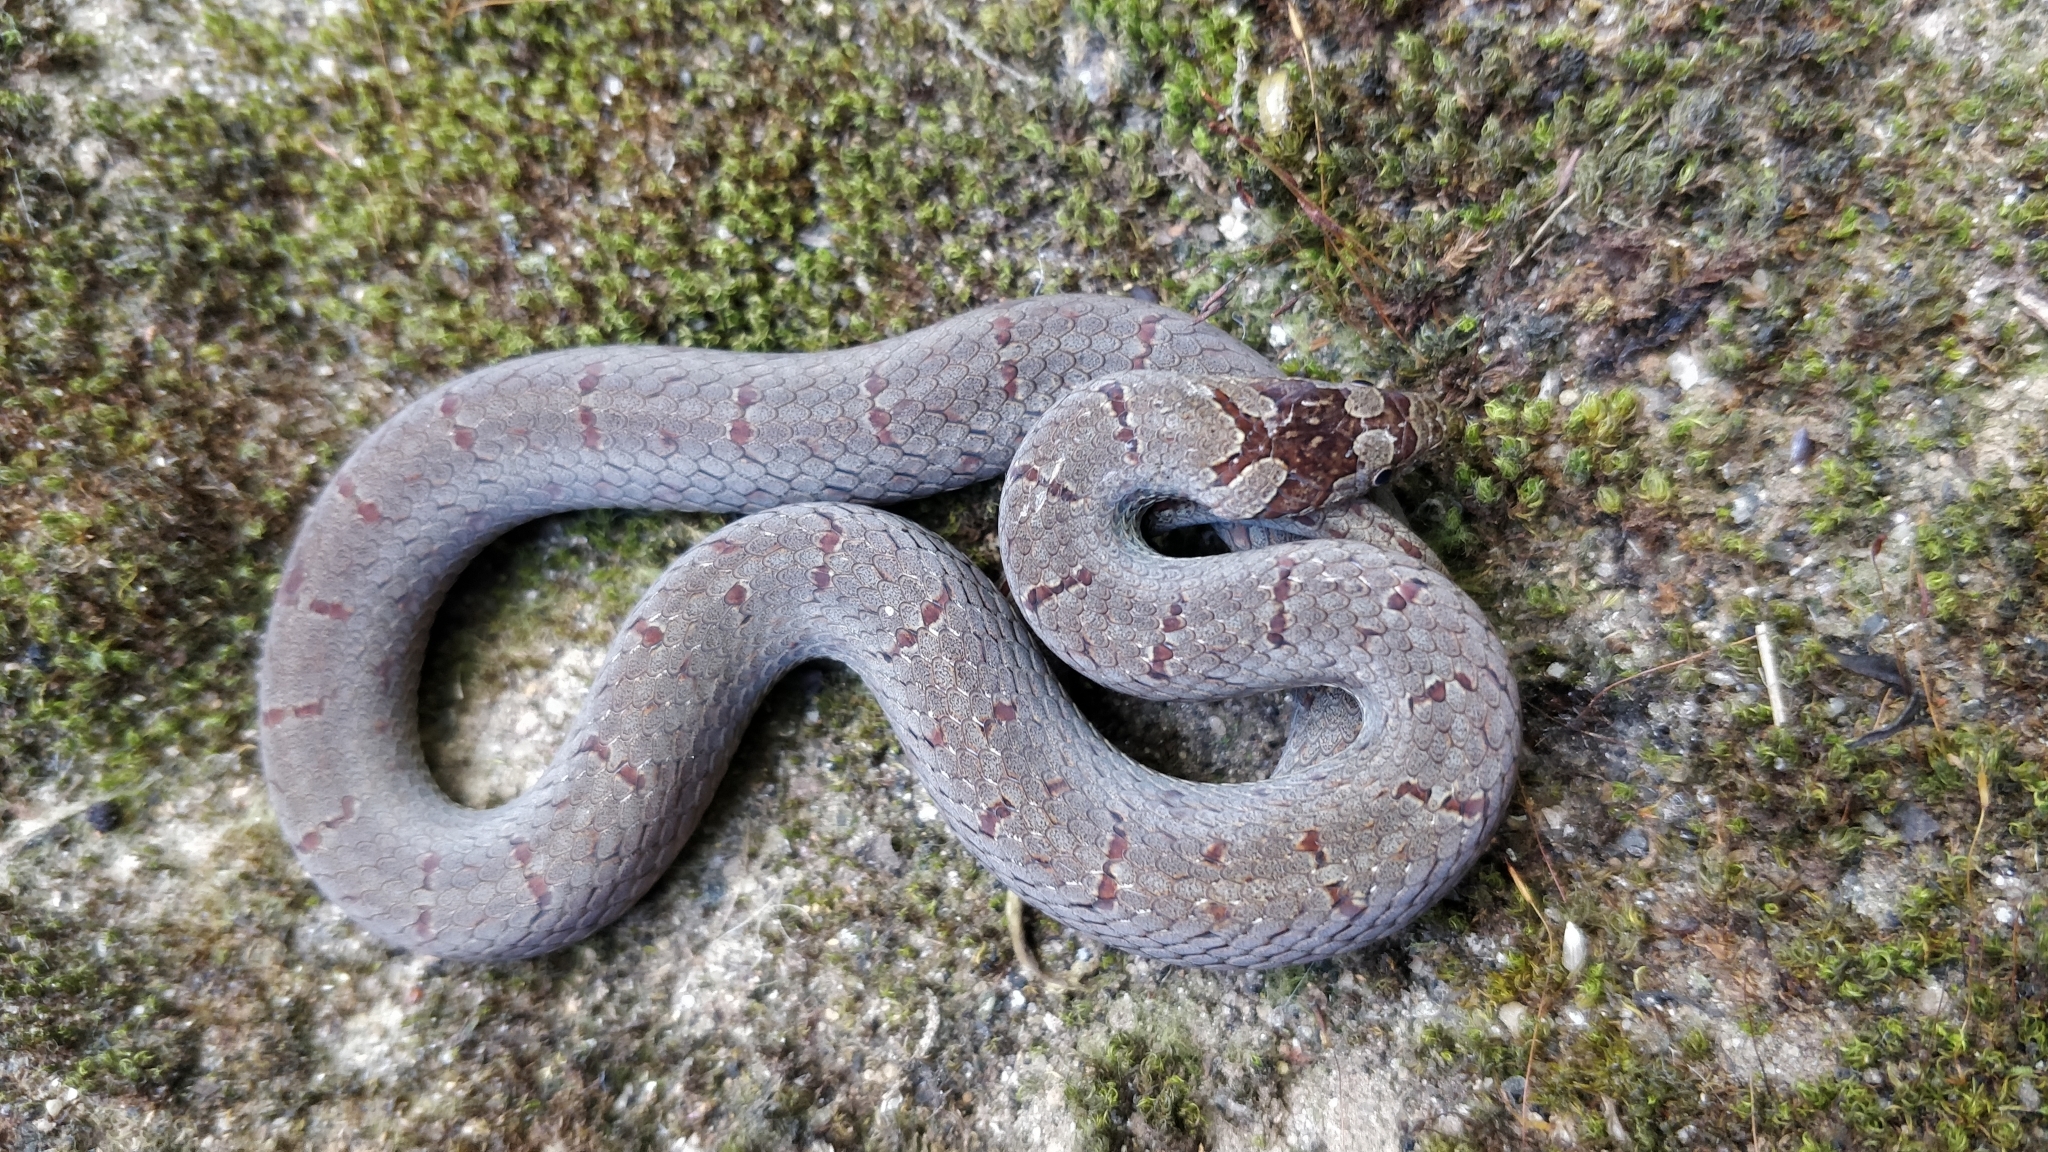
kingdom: Animalia
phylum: Chordata
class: Squamata
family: Colubridae
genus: Oligodon
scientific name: Oligodon affinis
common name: Malabar brown kukri snake
